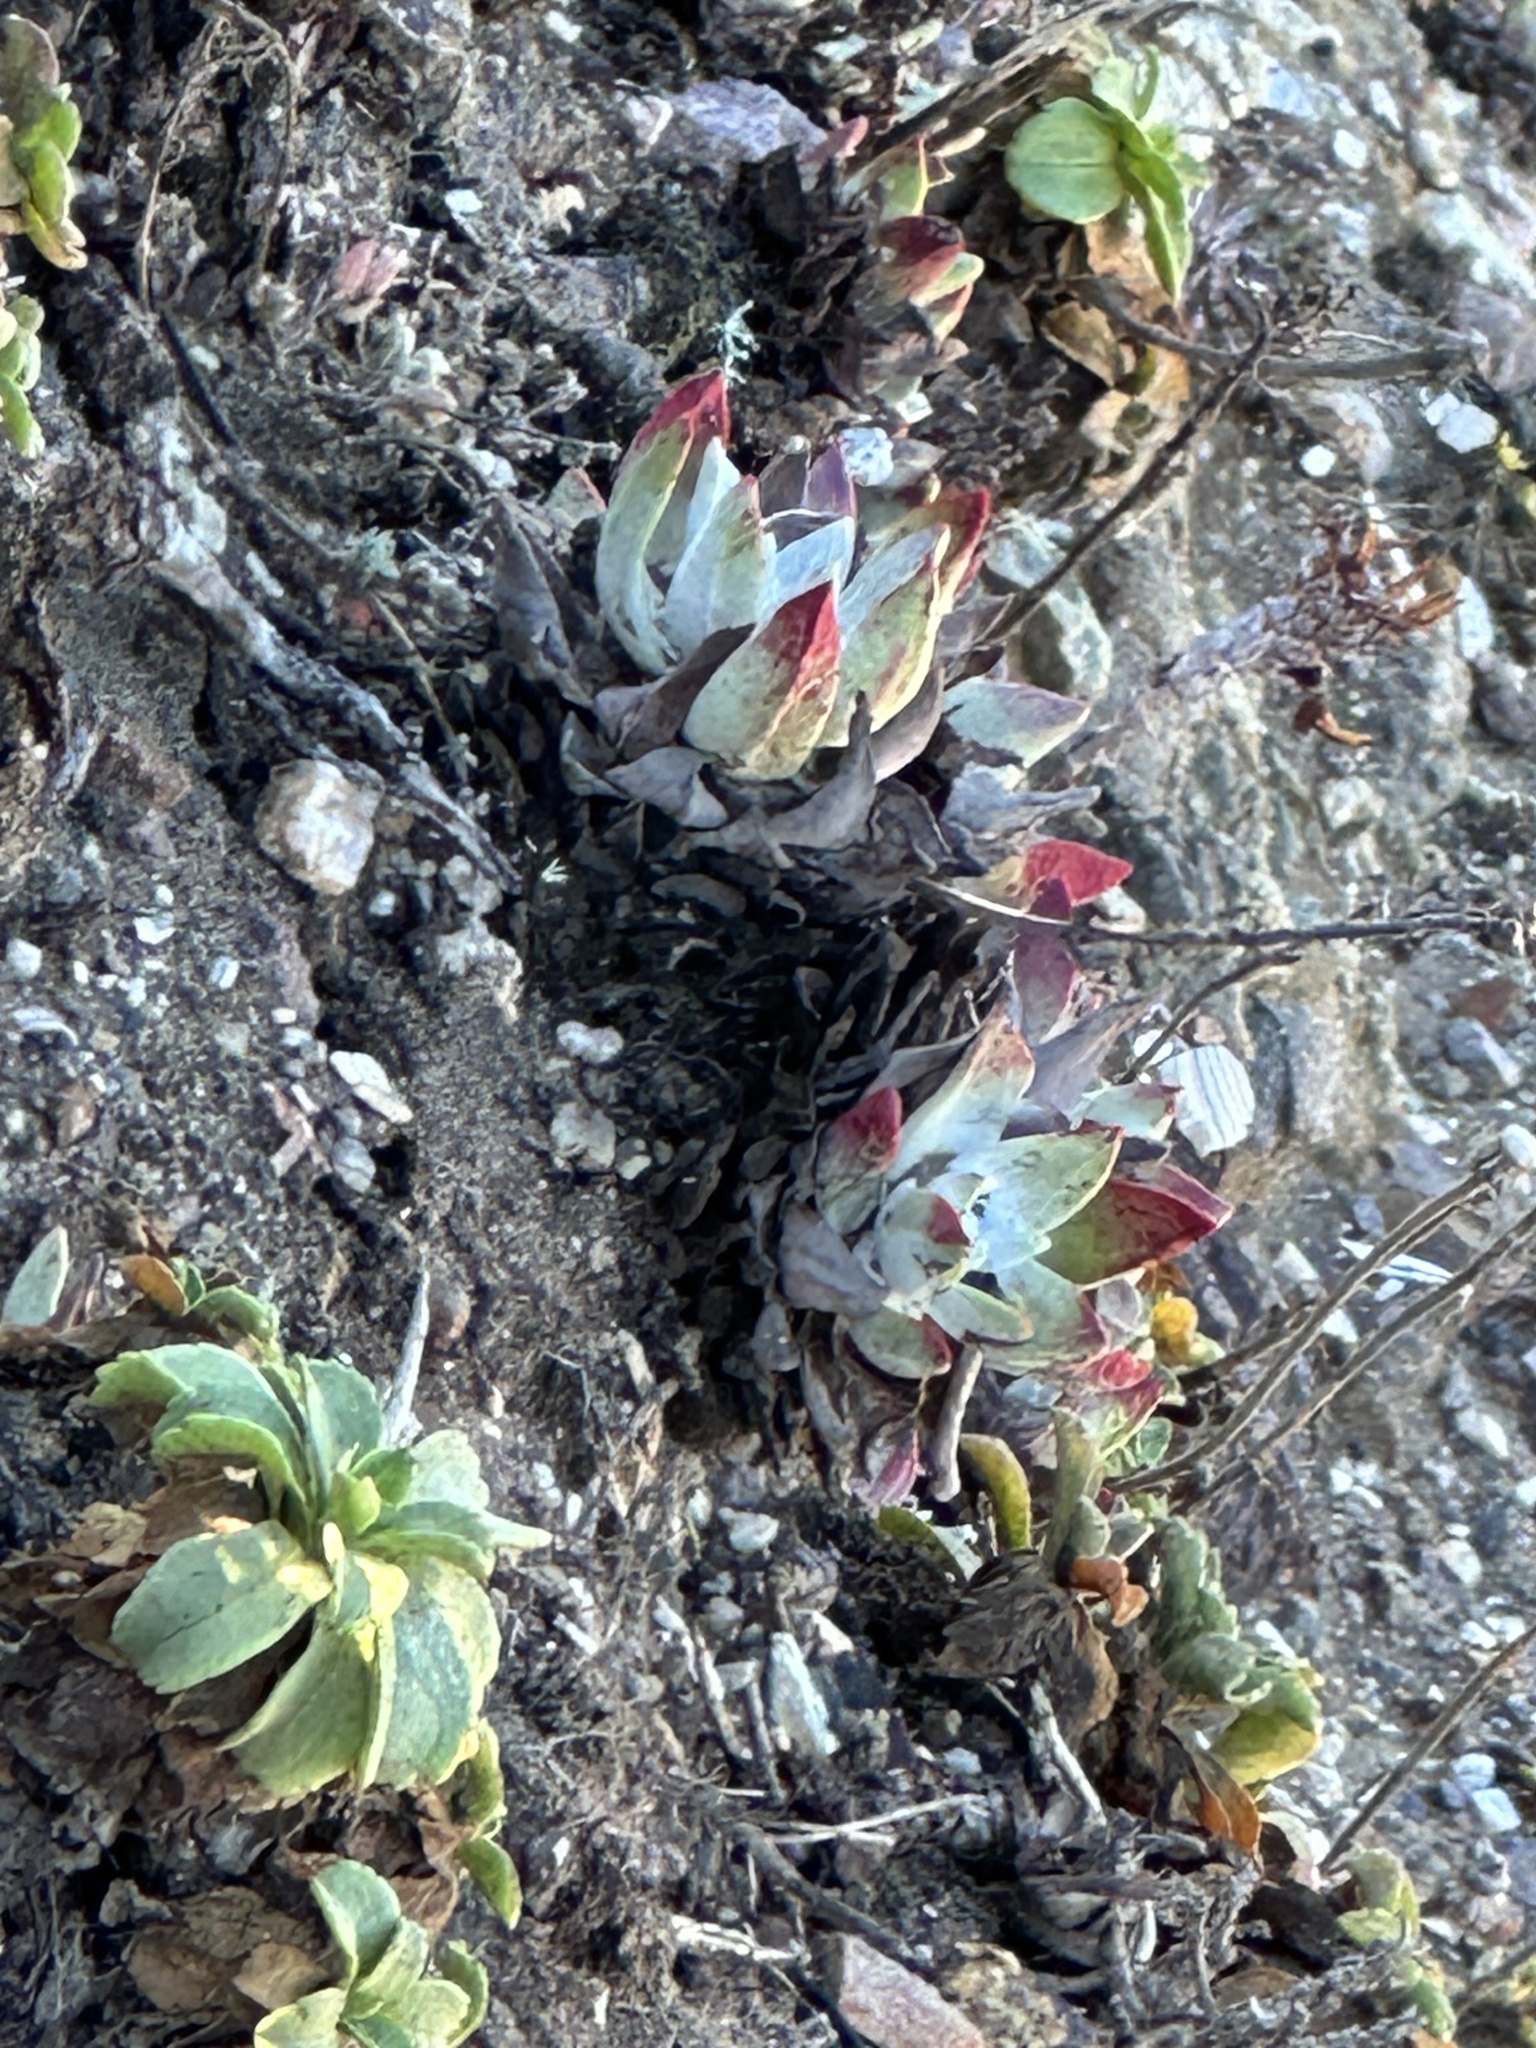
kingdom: Plantae
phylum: Tracheophyta
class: Magnoliopsida
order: Saxifragales
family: Crassulaceae
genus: Dudleya
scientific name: Dudleya farinosa
